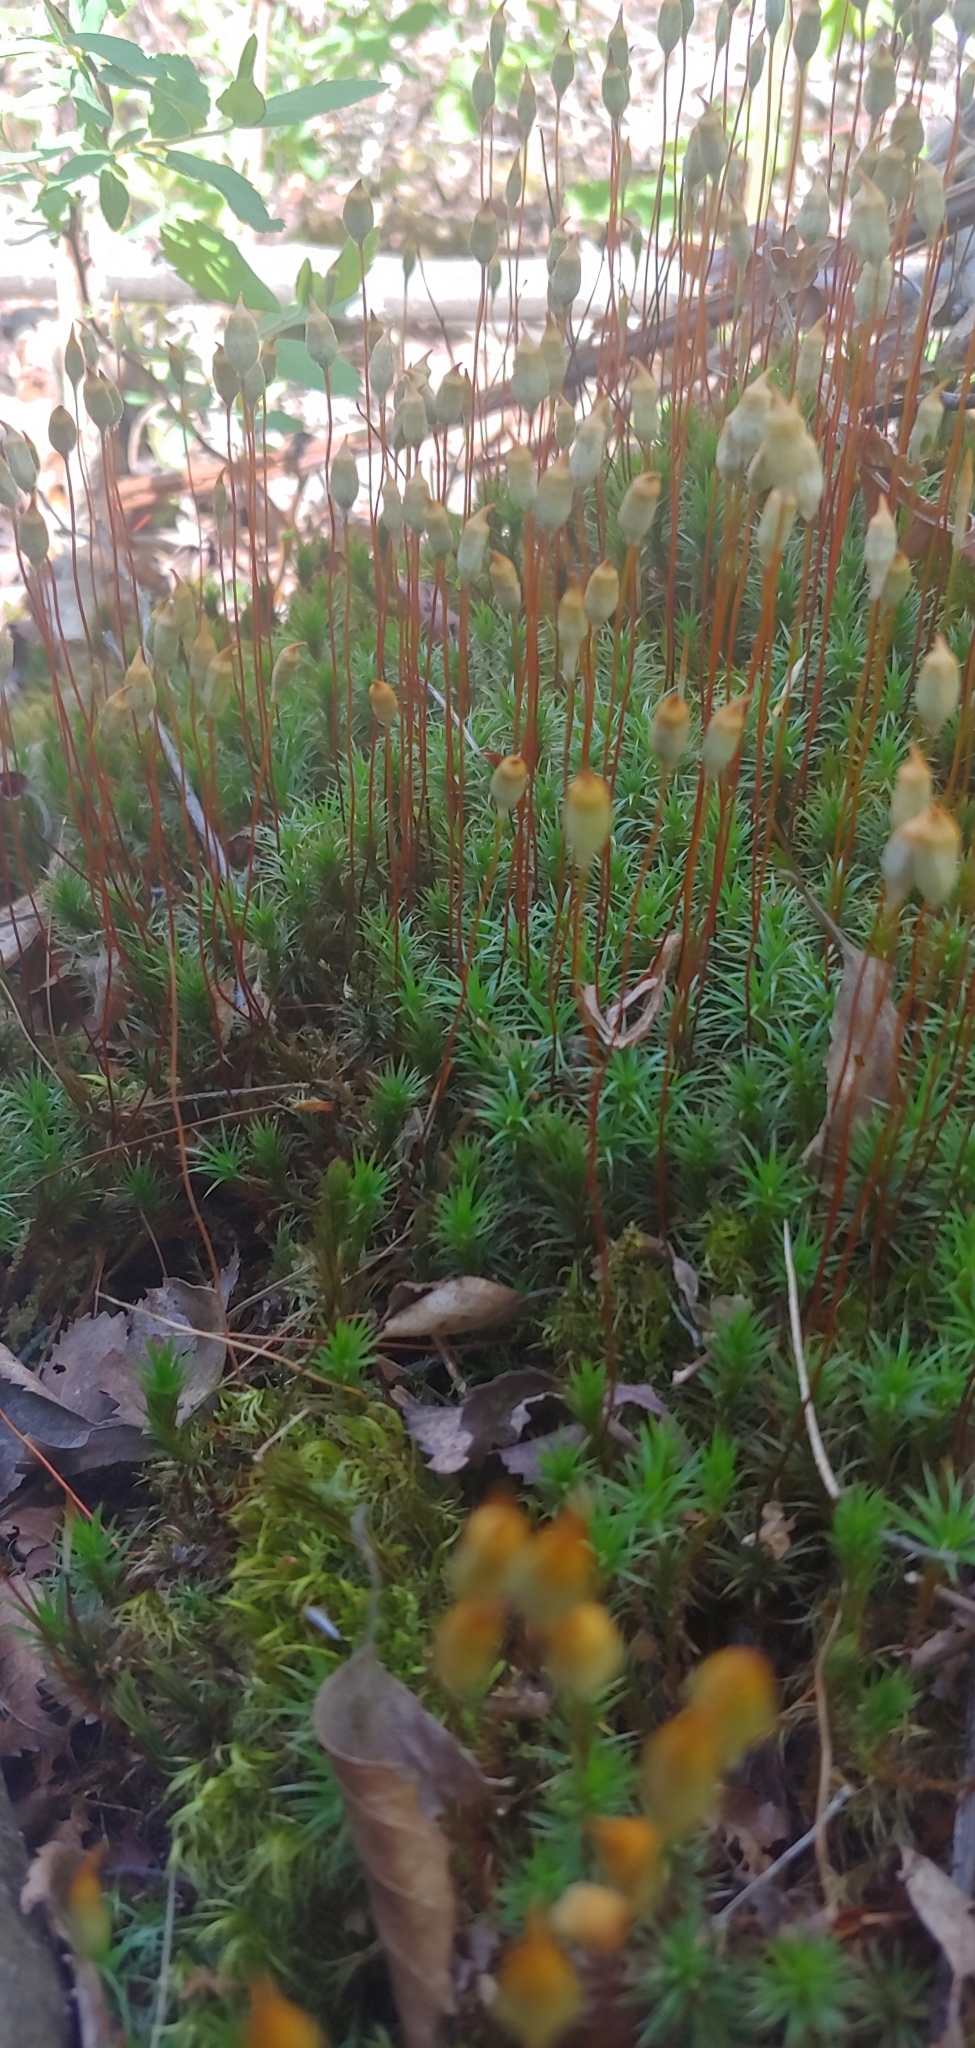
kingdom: Plantae
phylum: Bryophyta
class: Polytrichopsida
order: Polytrichales
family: Polytrichaceae
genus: Polytrichum
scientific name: Polytrichum commune
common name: Common haircap
